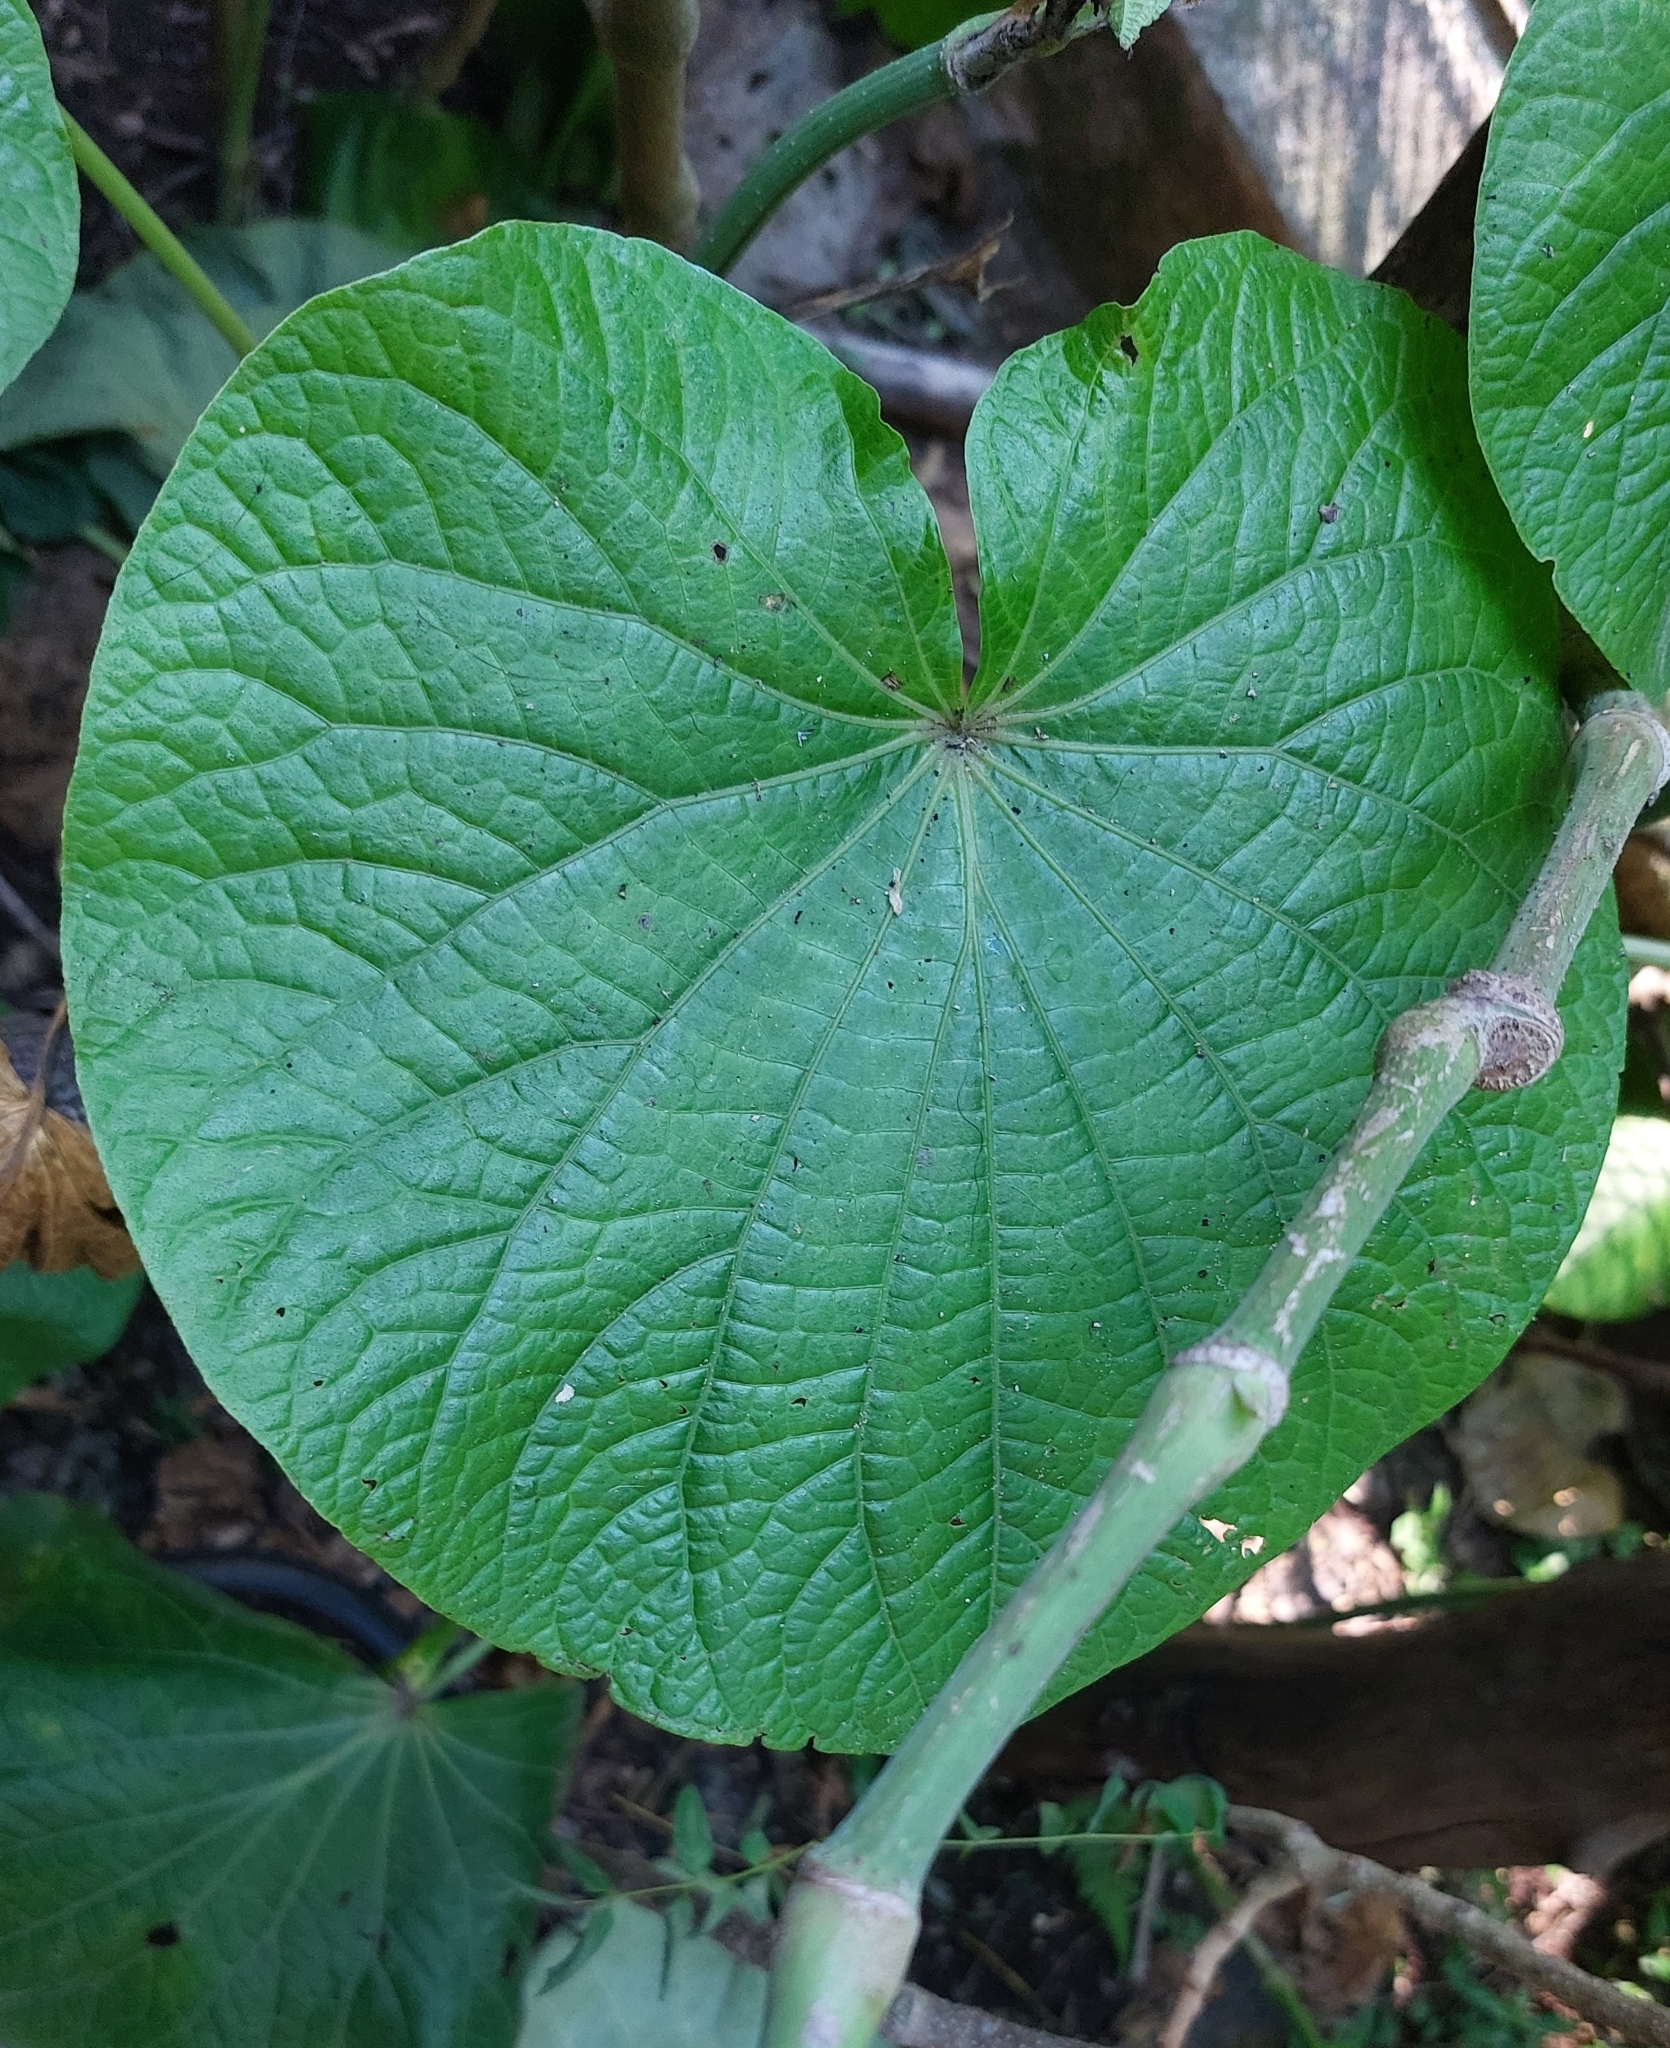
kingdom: Plantae
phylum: Tracheophyta
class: Magnoliopsida
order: Piperales
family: Piperaceae
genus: Piper
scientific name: Piper umbellatum
